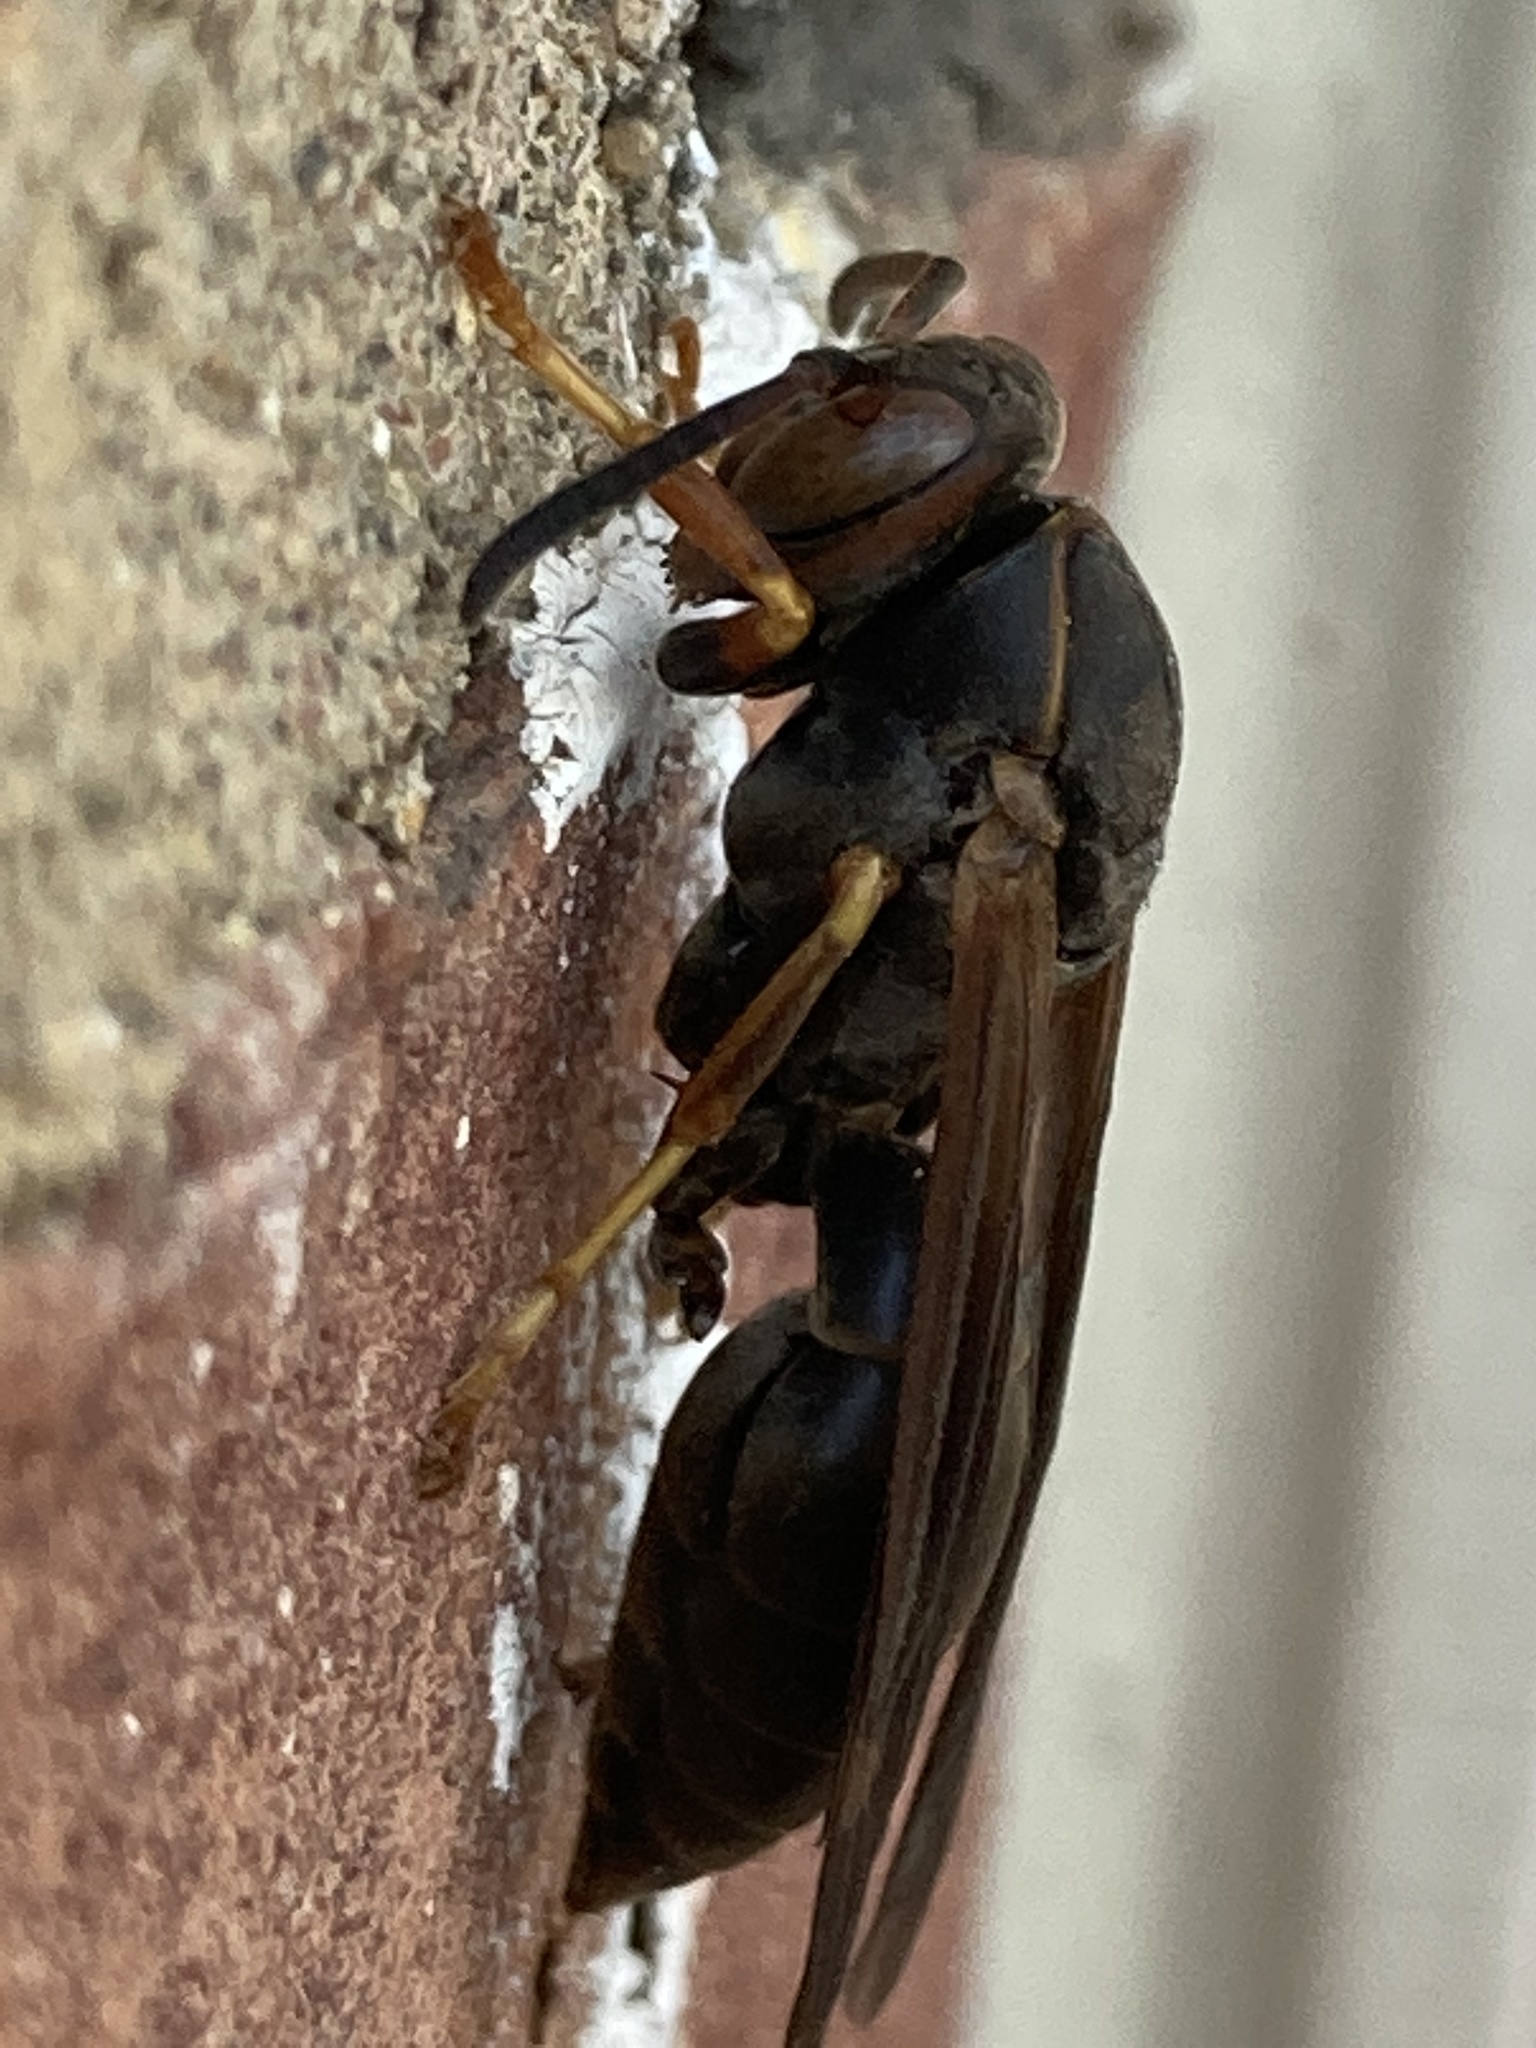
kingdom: Animalia
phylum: Arthropoda
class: Insecta
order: Hymenoptera
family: Eumenidae
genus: Polistes
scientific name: Polistes fuscatus
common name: Dark paper wasp
